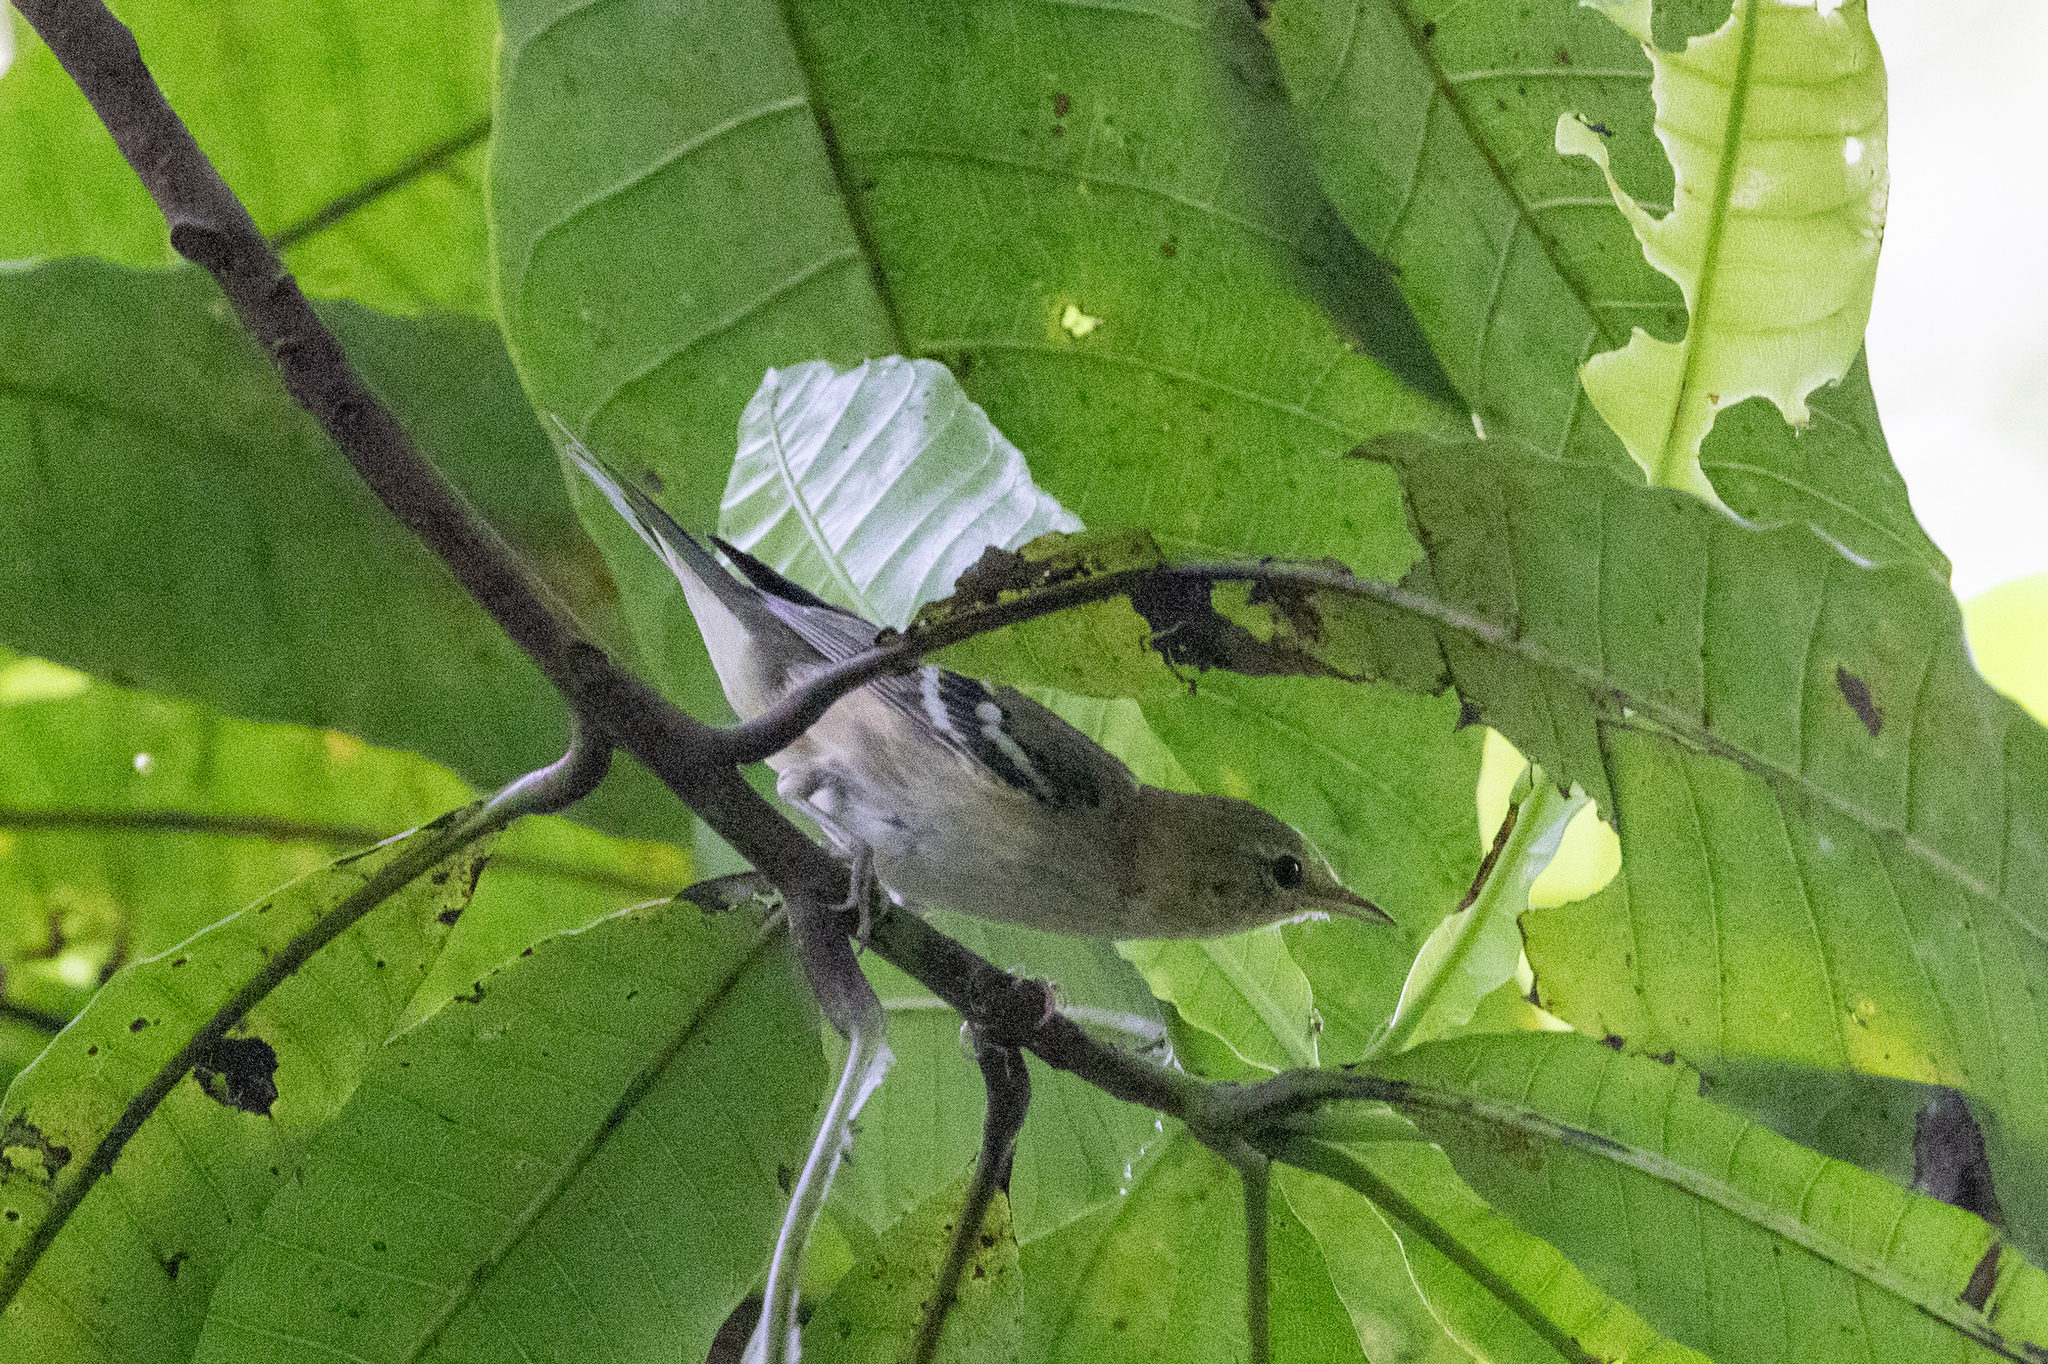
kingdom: Animalia
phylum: Chordata
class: Aves
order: Passeriformes
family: Parulidae
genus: Setophaga
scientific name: Setophaga castanea
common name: Bay-breasted warbler
